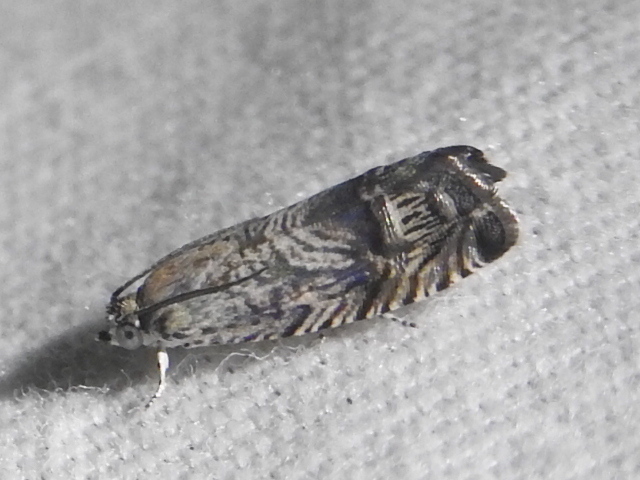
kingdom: Animalia
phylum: Arthropoda
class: Insecta
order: Lepidoptera
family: Tortricidae
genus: Ofatulena
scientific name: Ofatulena duodecemstriata
